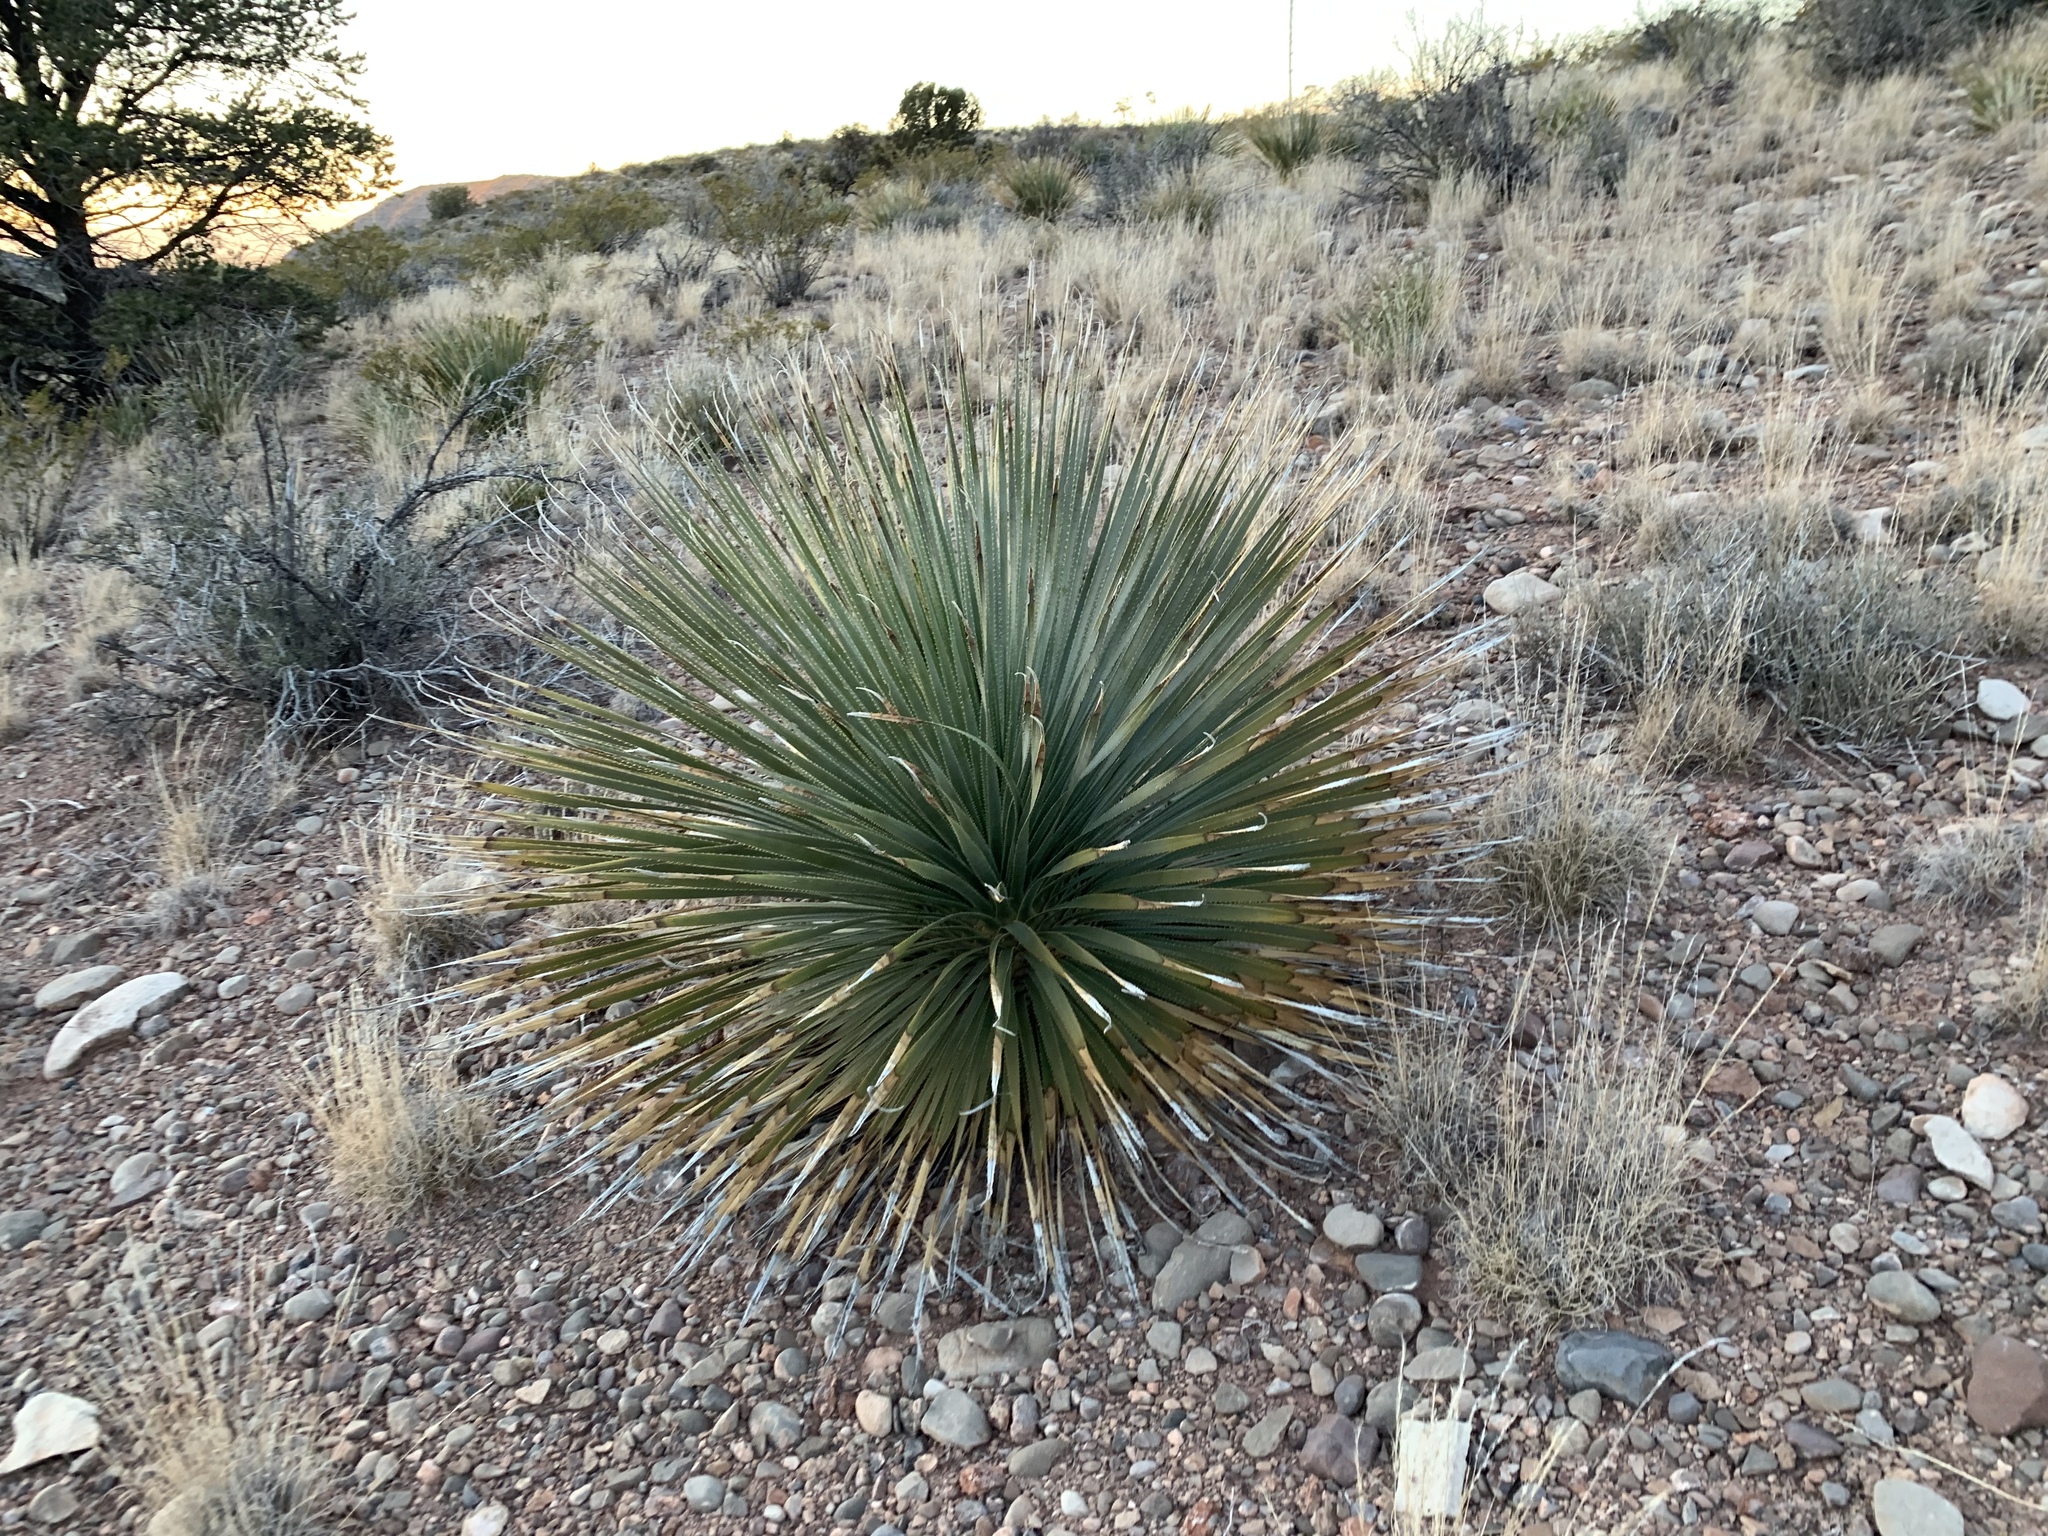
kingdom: Plantae
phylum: Tracheophyta
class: Liliopsida
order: Asparagales
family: Asparagaceae
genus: Dasylirion
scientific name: Dasylirion wheeleri
